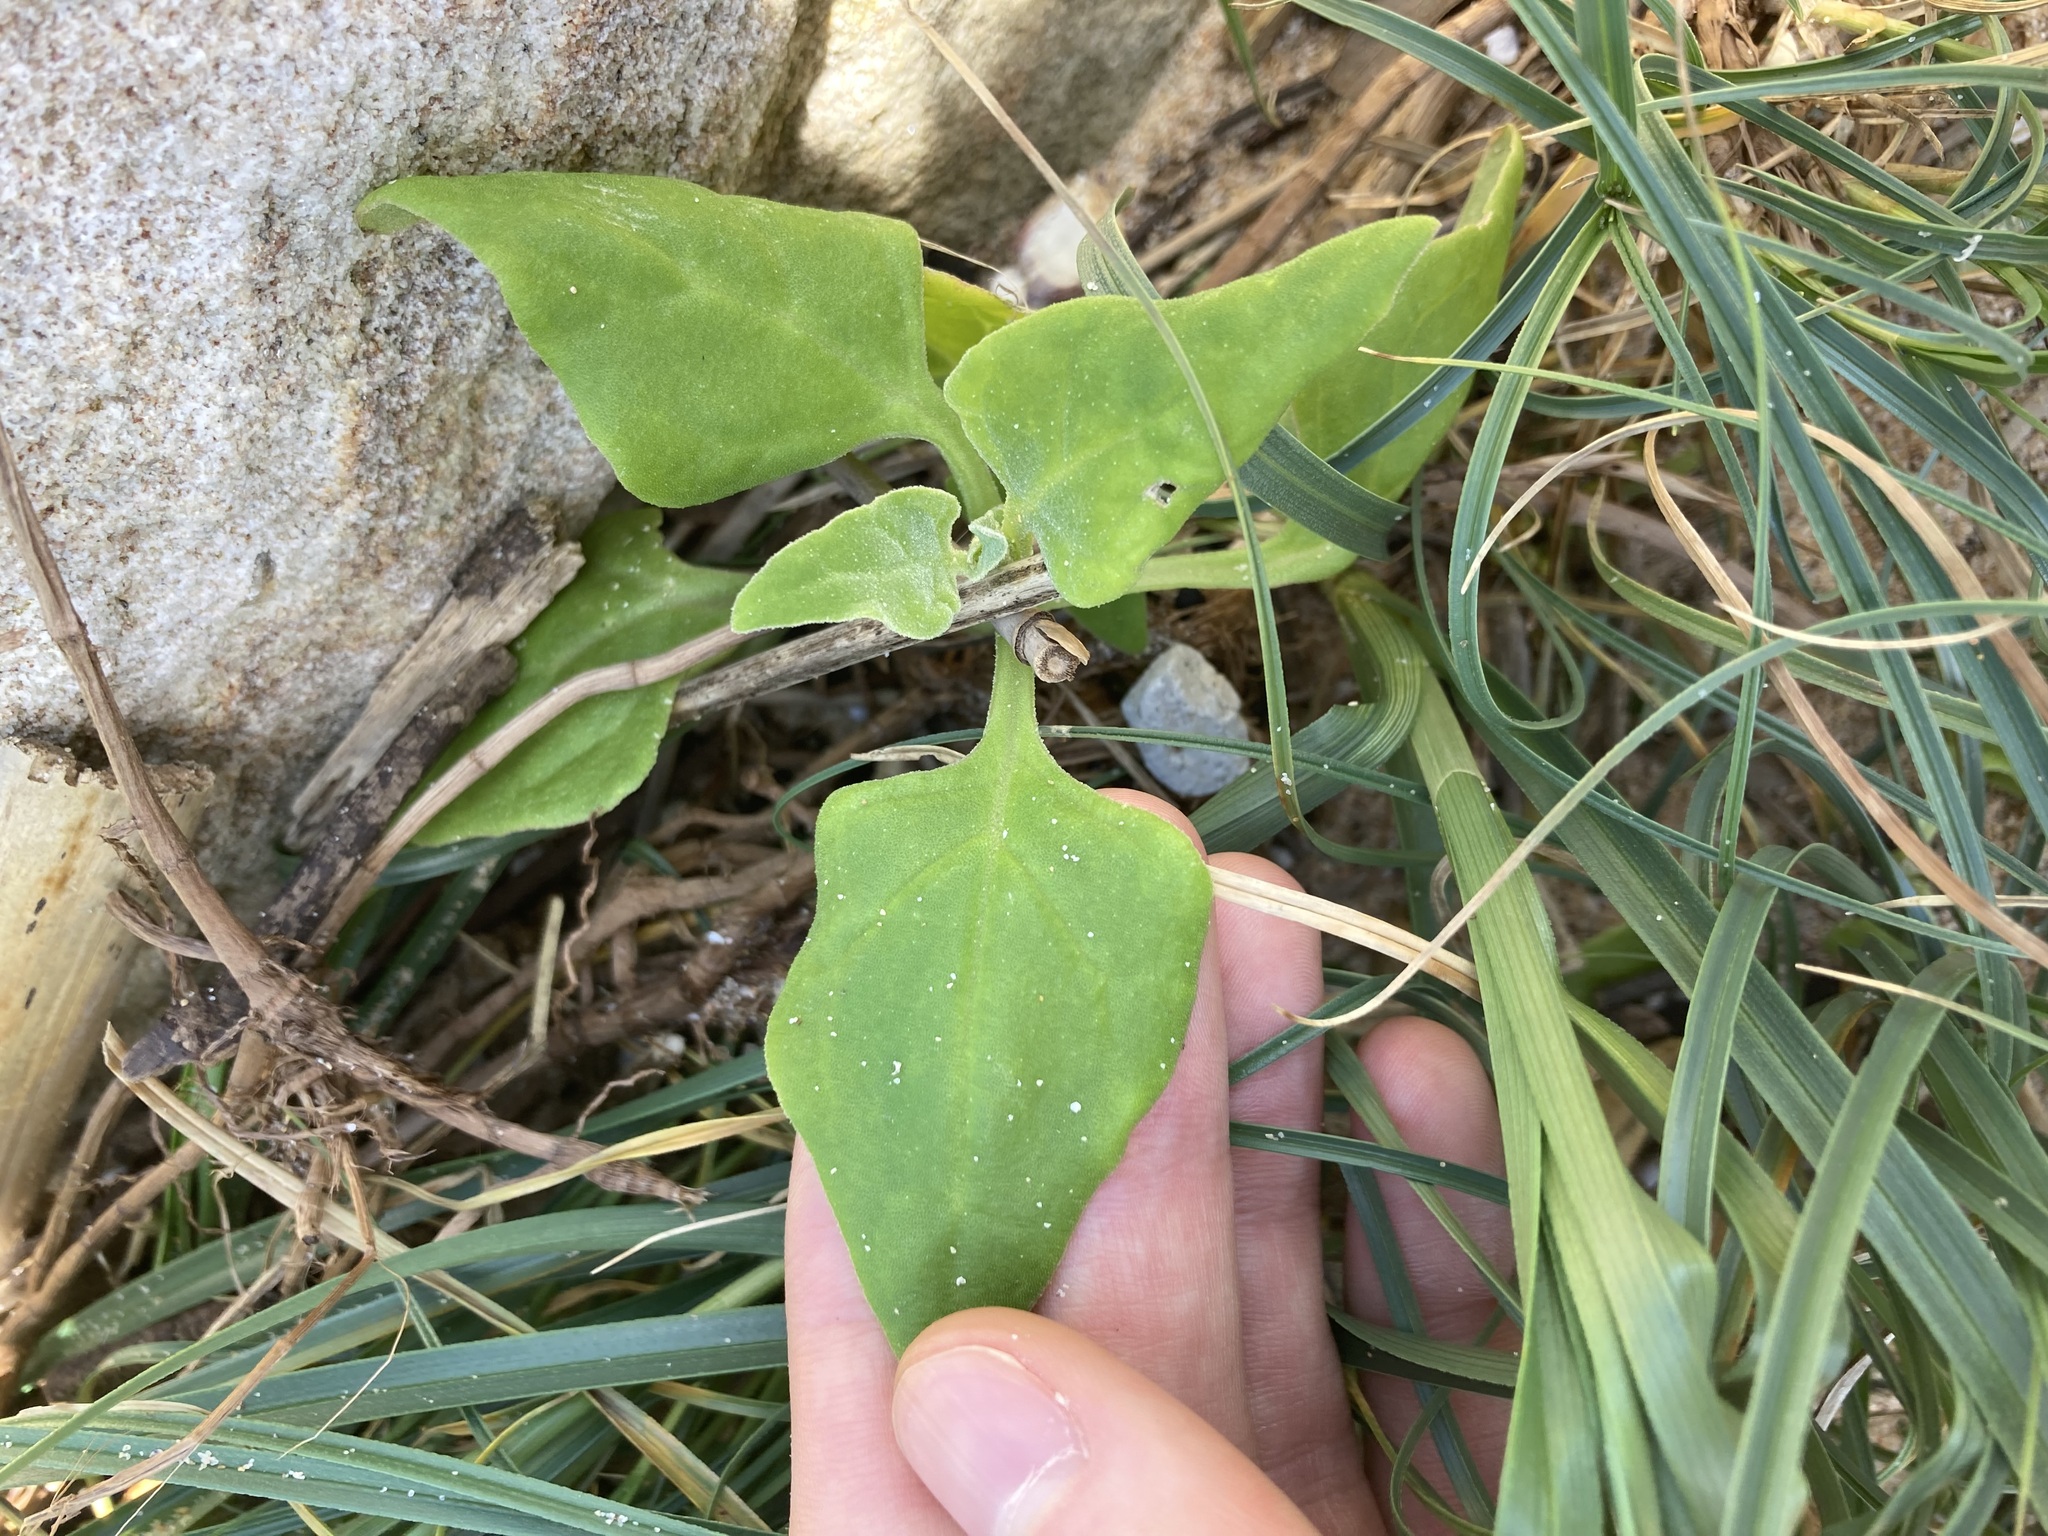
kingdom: Plantae
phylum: Tracheophyta
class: Magnoliopsida
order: Caryophyllales
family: Aizoaceae
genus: Tetragonia
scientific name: Tetragonia tetragonoides
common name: New zealand-spinach
